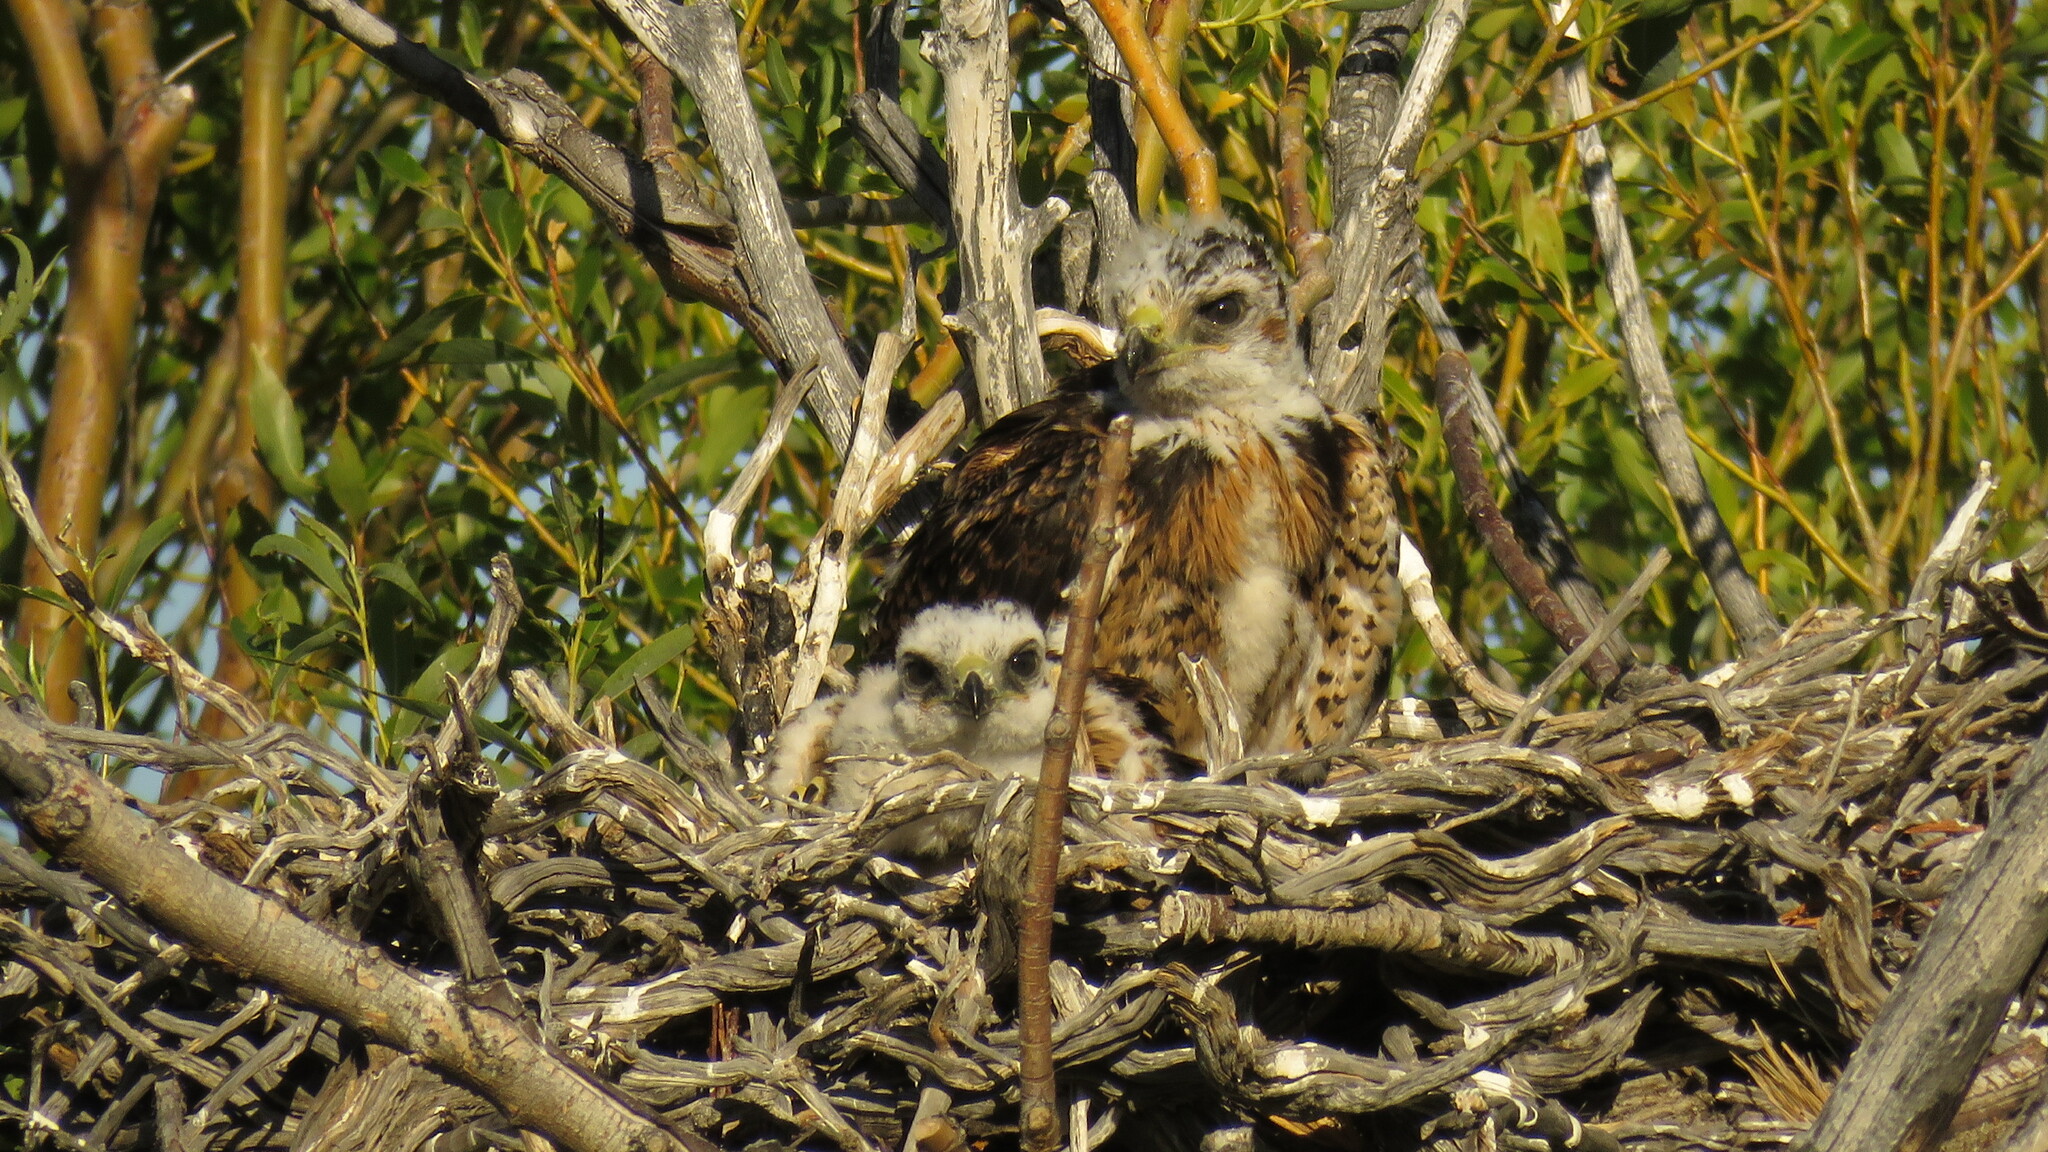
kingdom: Animalia
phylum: Chordata
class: Aves
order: Accipitriformes
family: Accipitridae
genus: Buteo
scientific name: Buteo polyosoma
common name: Variable hawk
